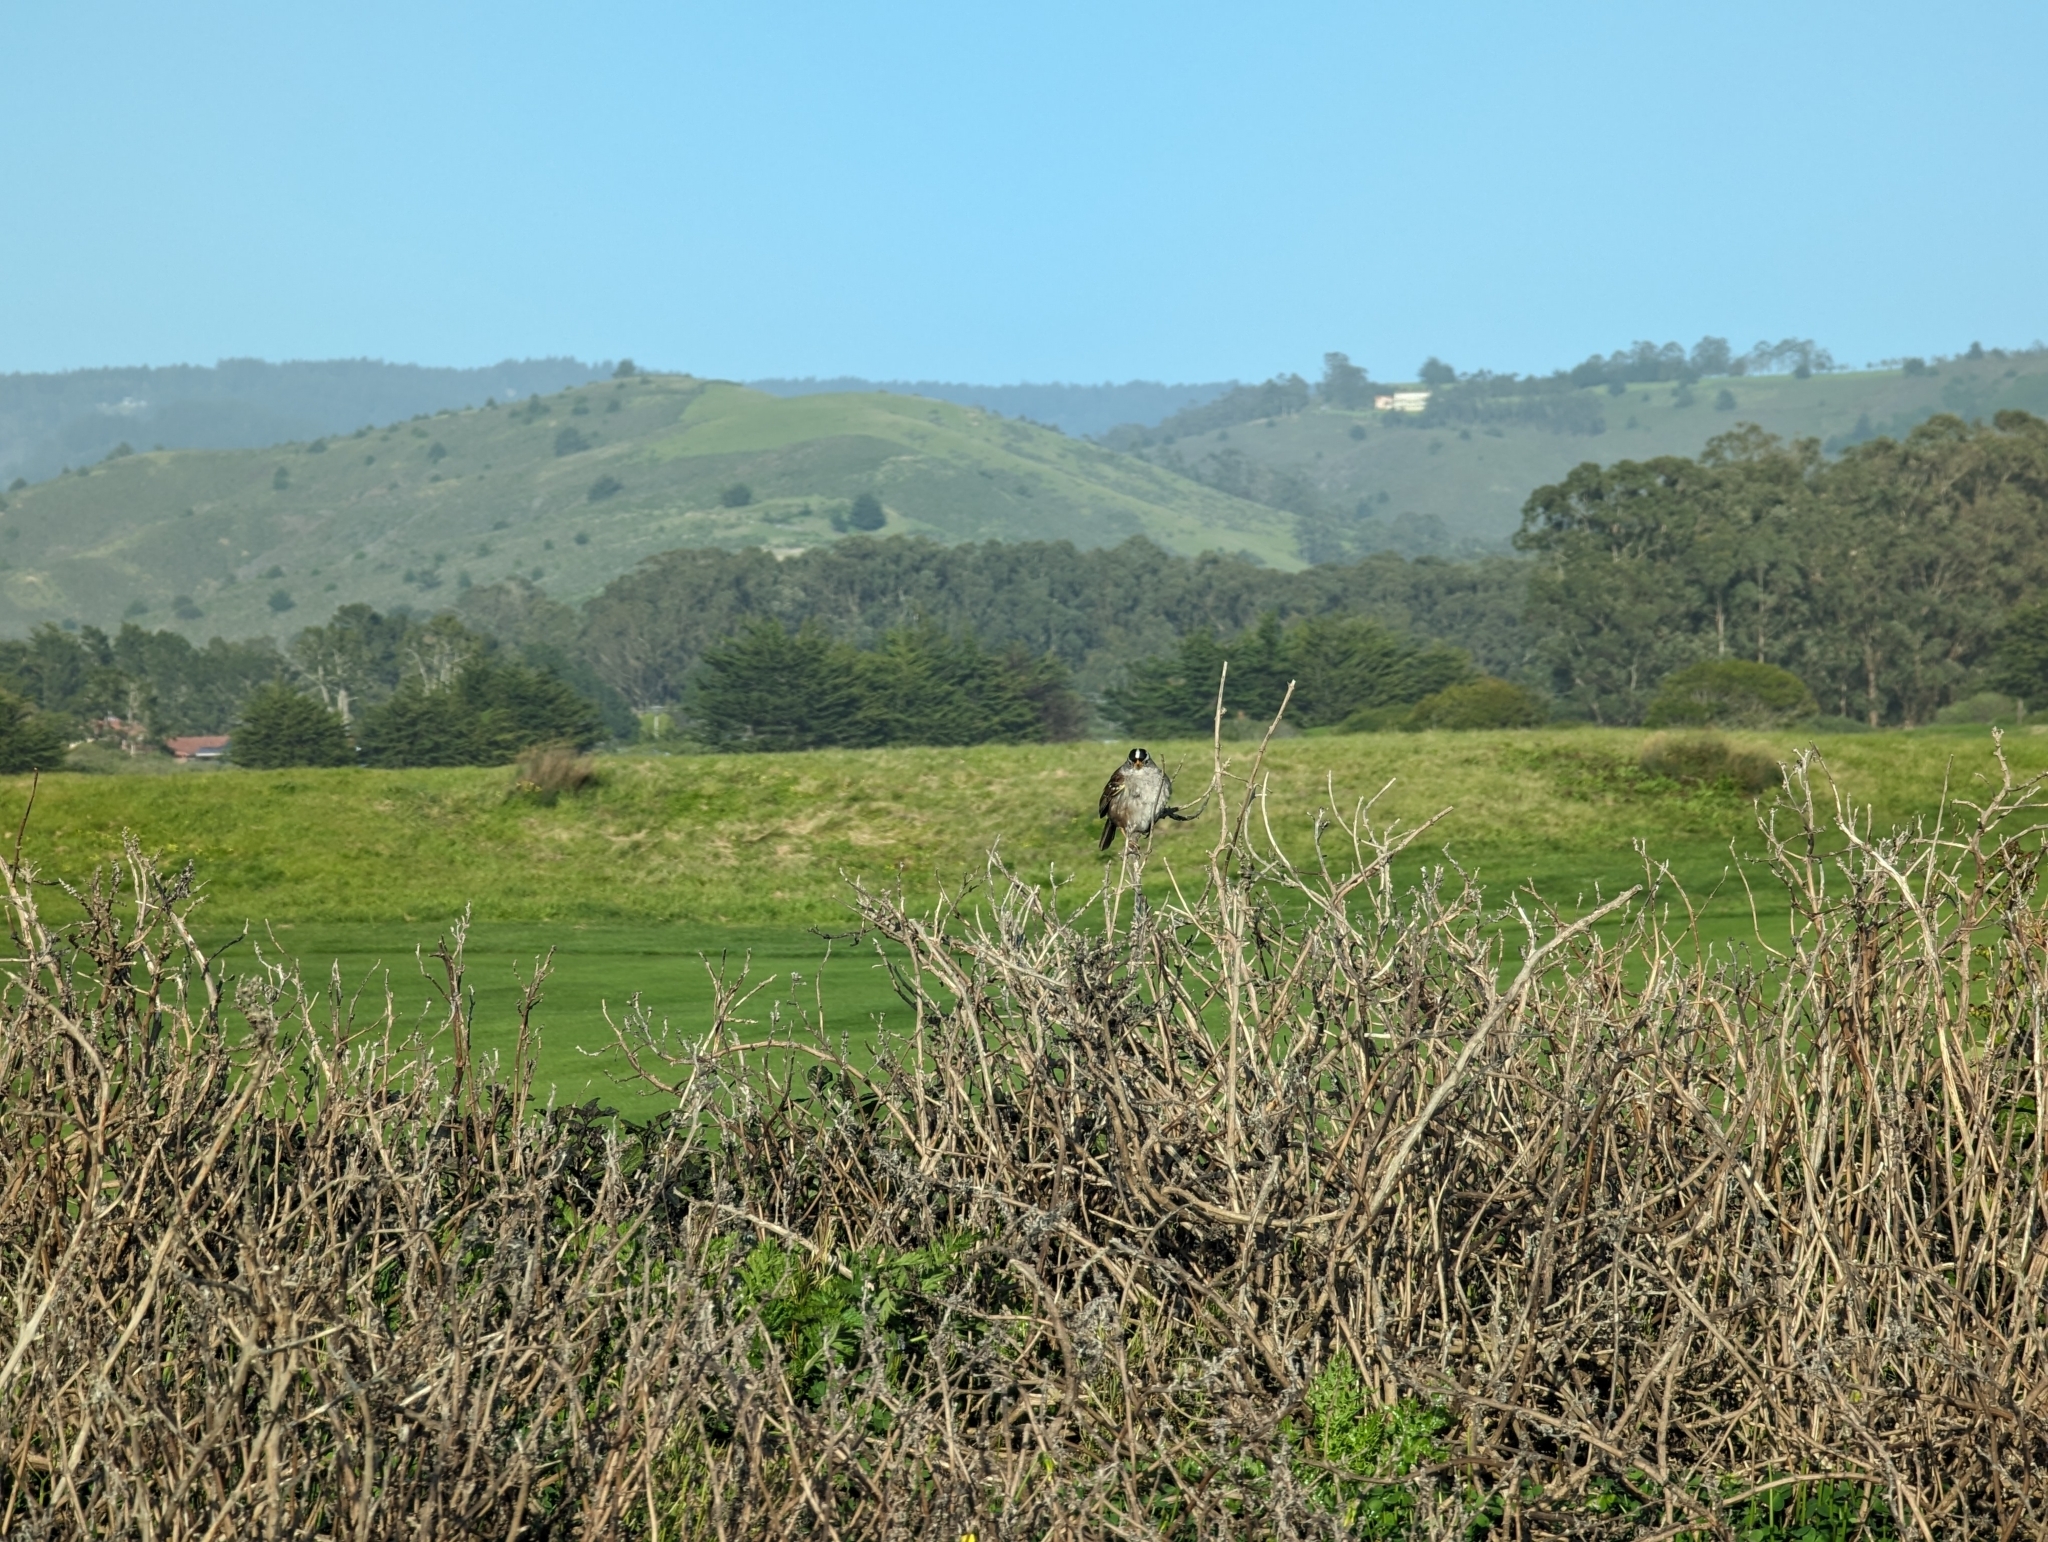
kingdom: Animalia
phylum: Chordata
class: Aves
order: Passeriformes
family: Passerellidae
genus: Zonotrichia
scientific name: Zonotrichia leucophrys
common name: White-crowned sparrow
